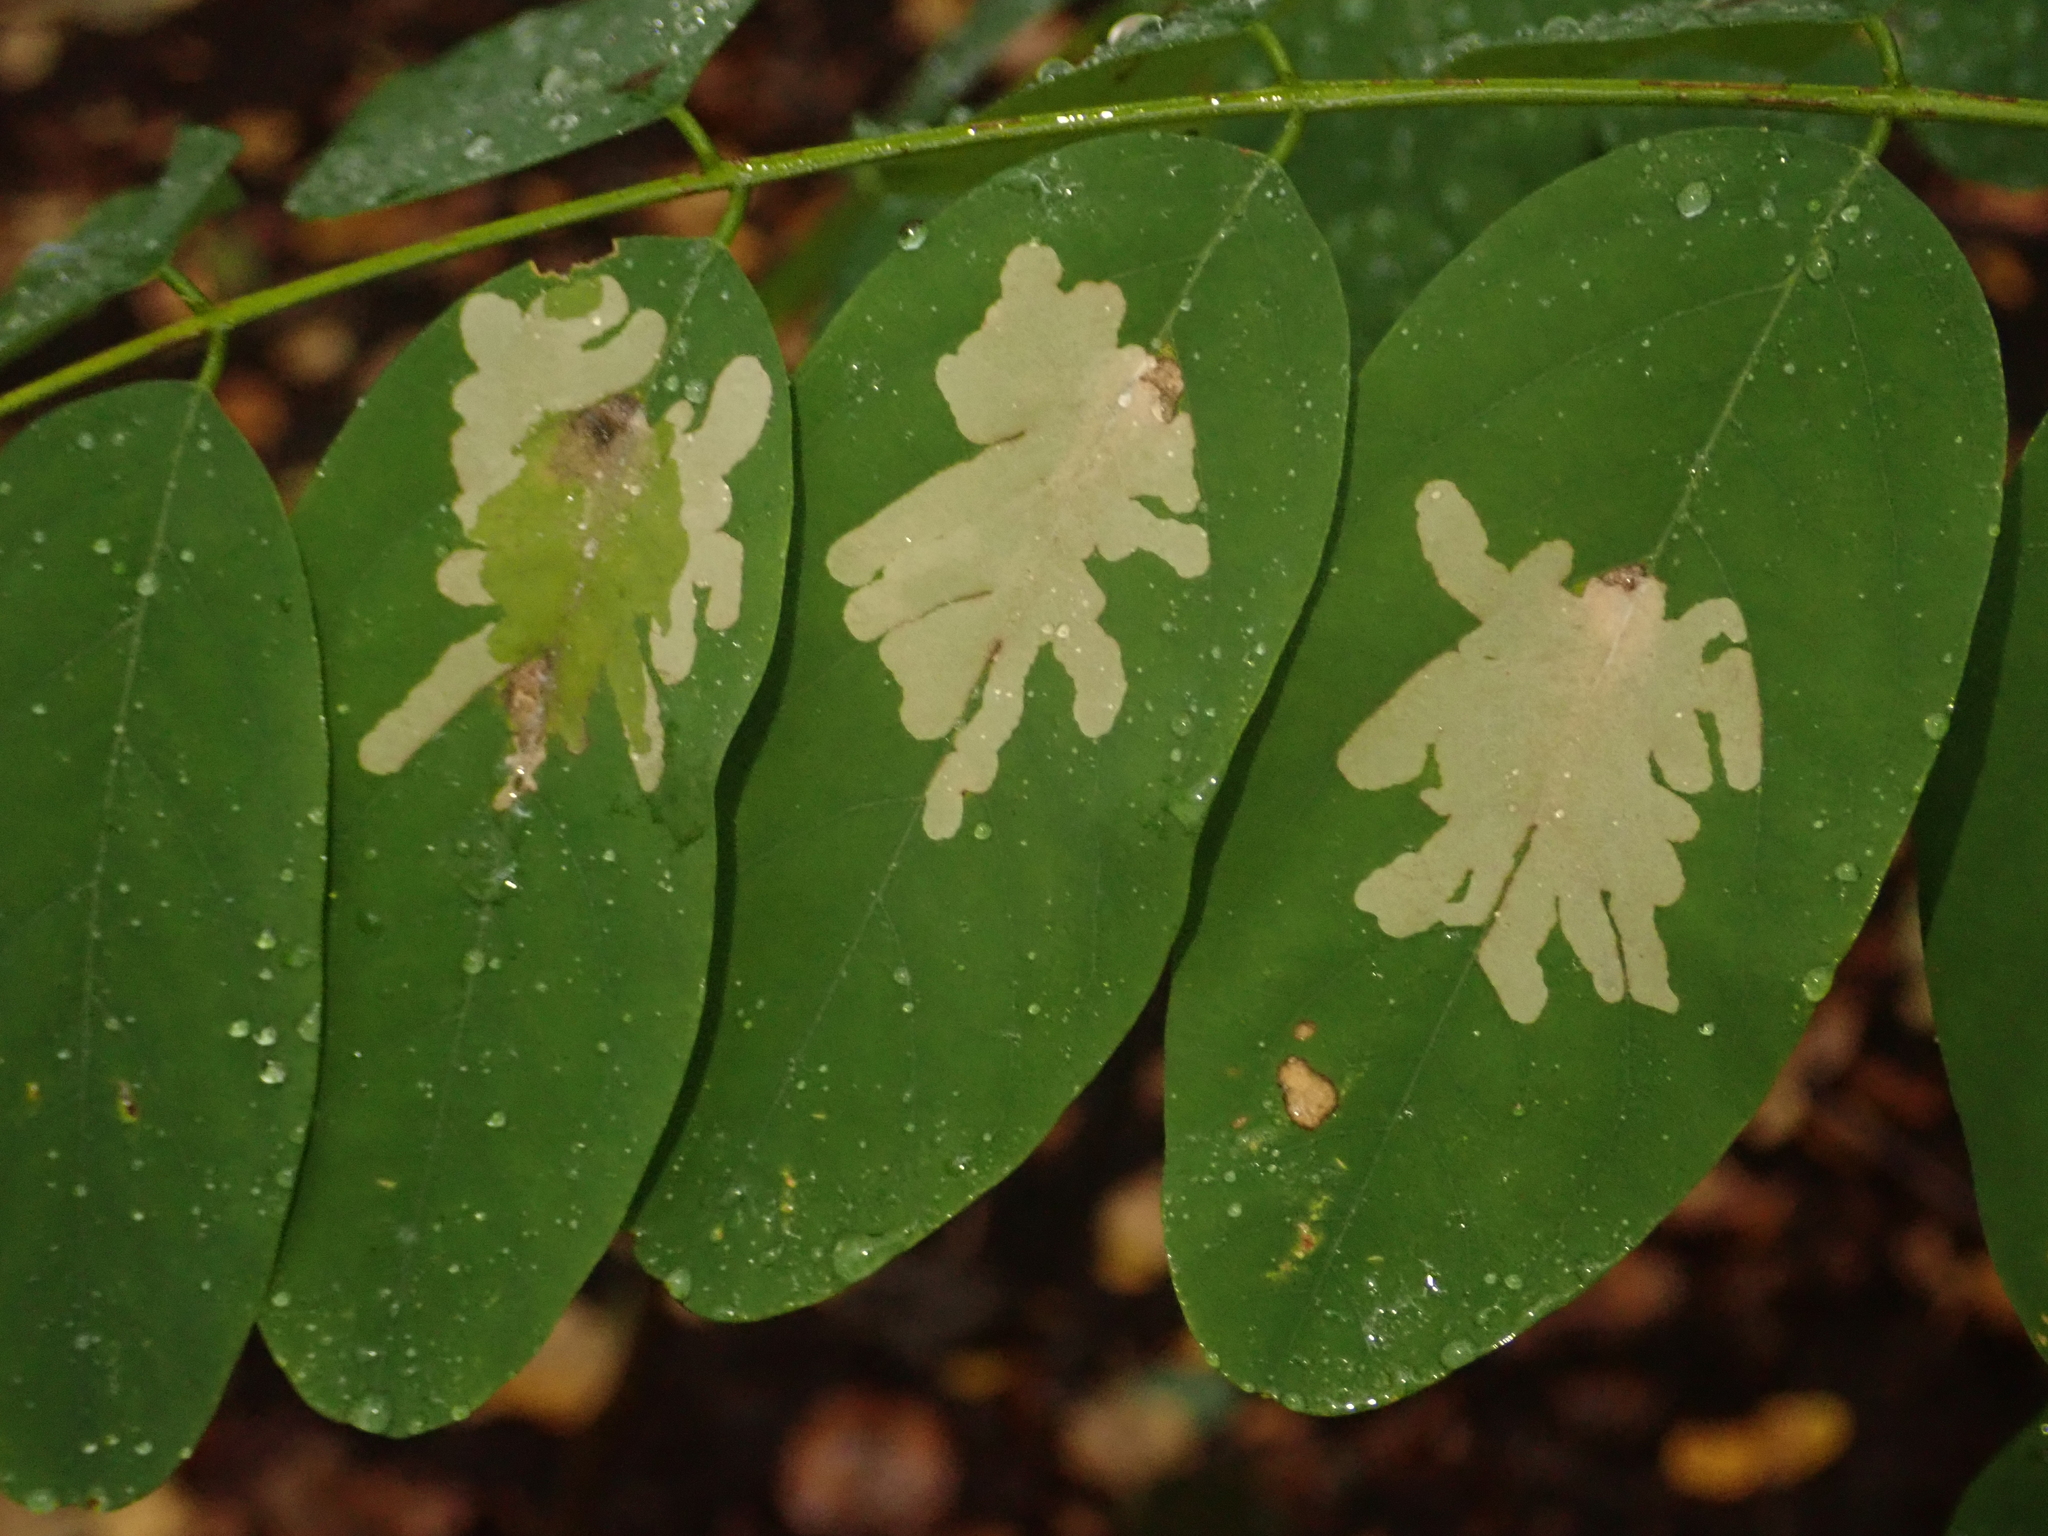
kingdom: Plantae
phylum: Tracheophyta
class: Magnoliopsida
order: Fabales
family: Fabaceae
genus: Robinia
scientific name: Robinia pseudoacacia
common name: Black locust
